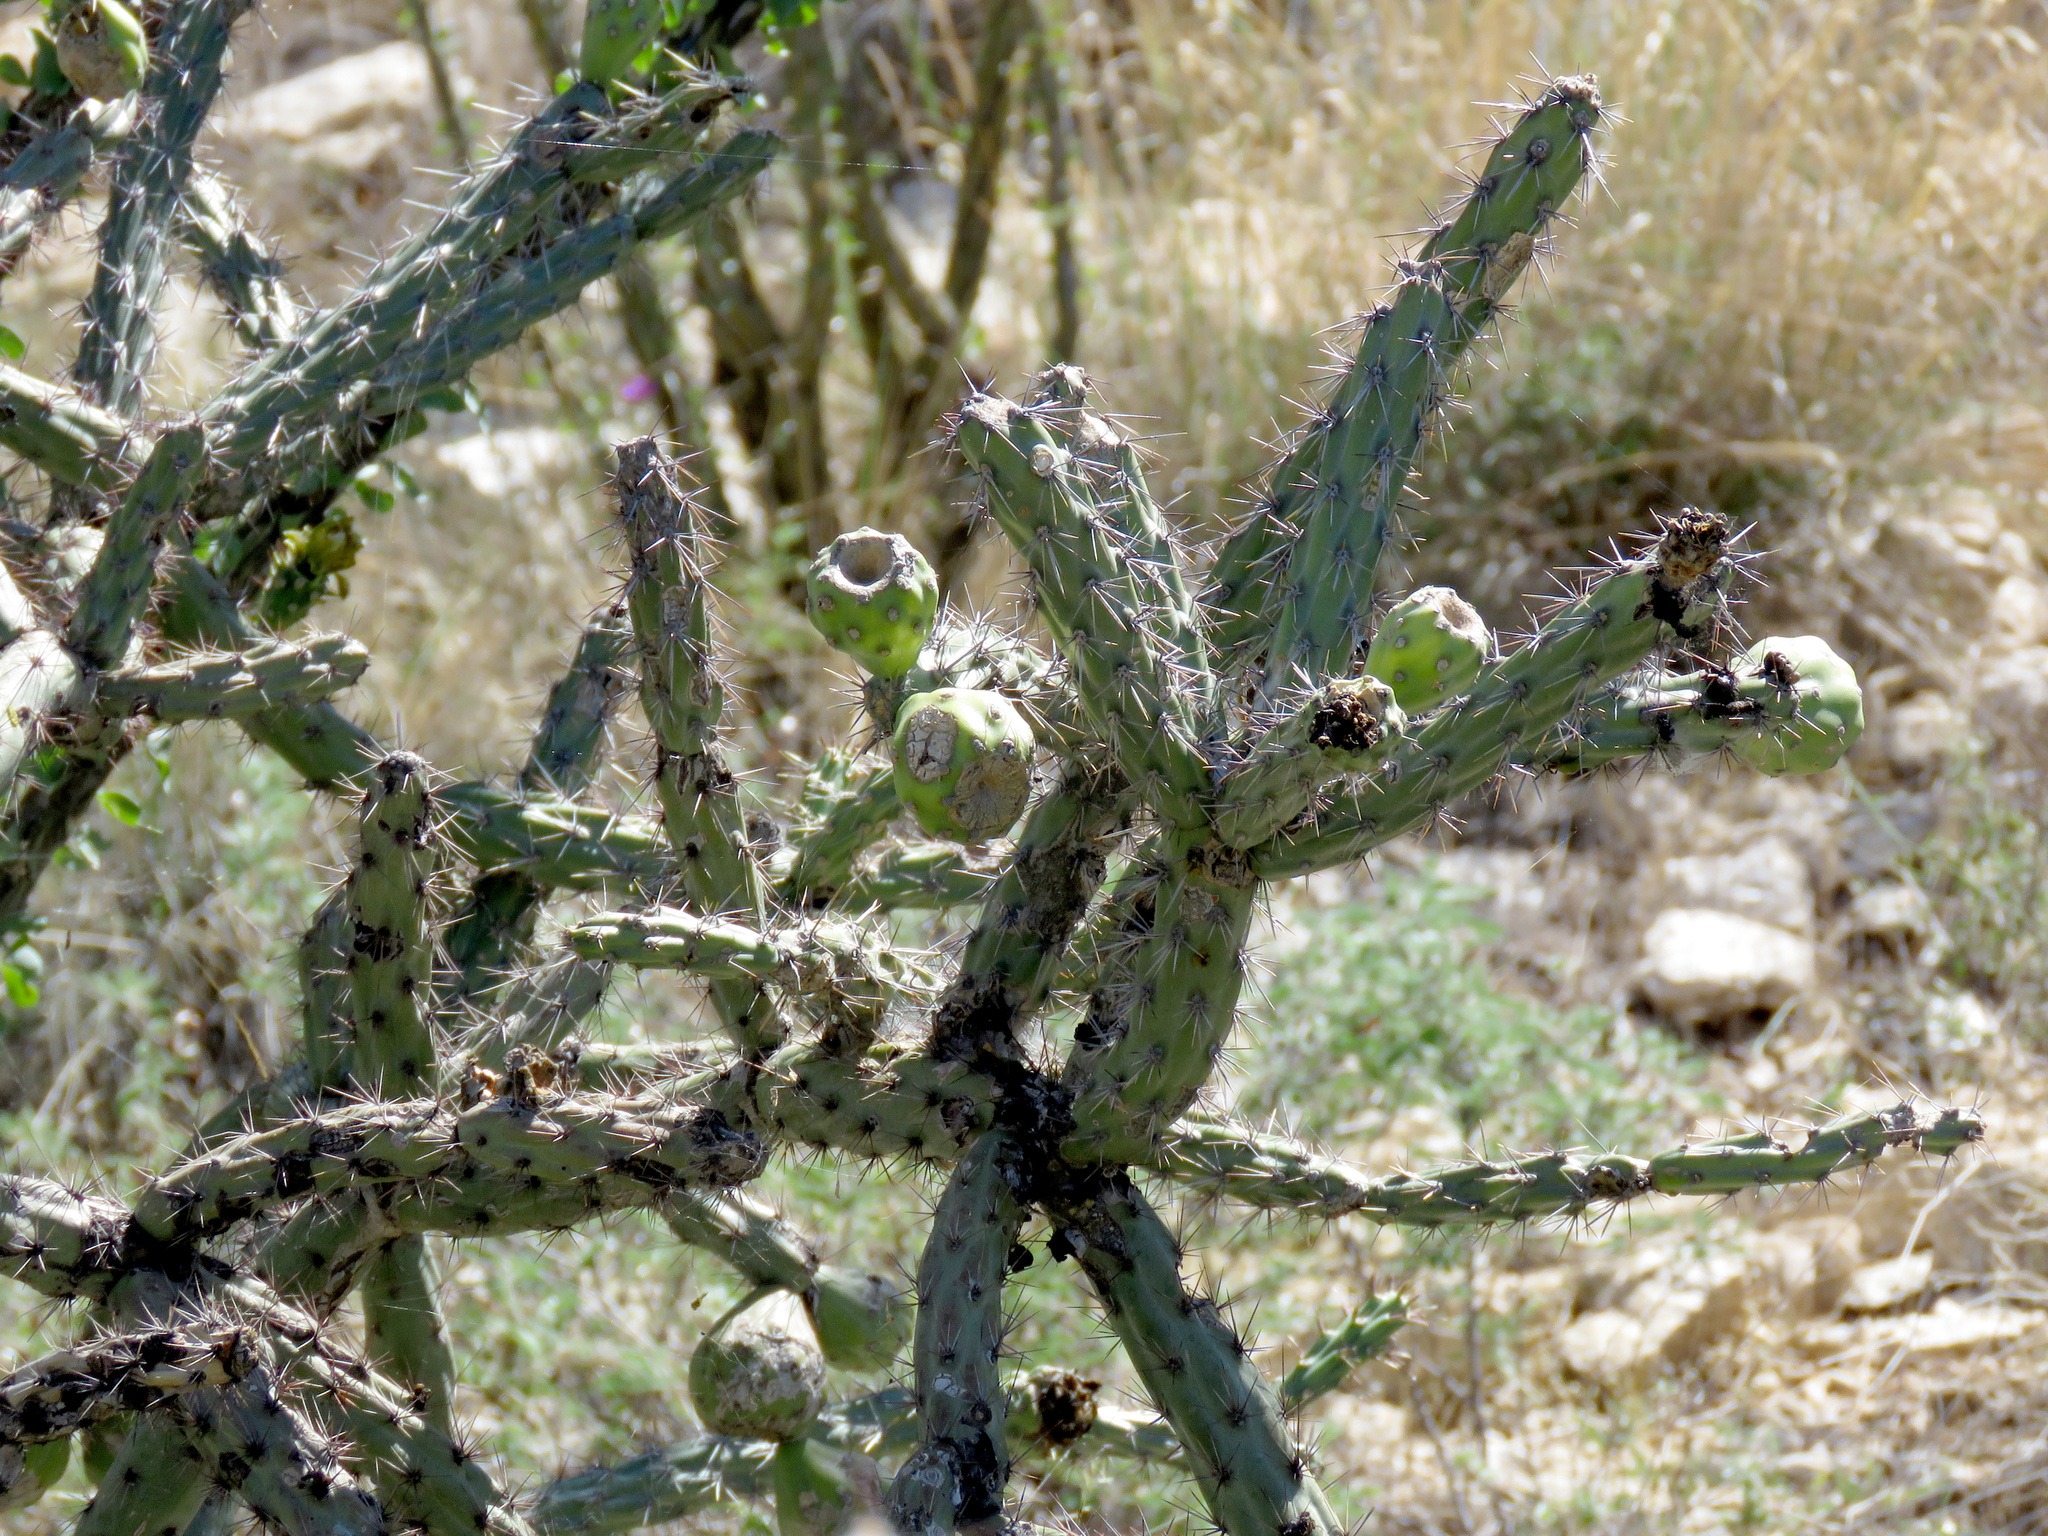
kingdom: Plantae
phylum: Tracheophyta
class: Magnoliopsida
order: Caryophyllales
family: Cactaceae
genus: Cylindropuntia
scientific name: Cylindropuntia thurberi
